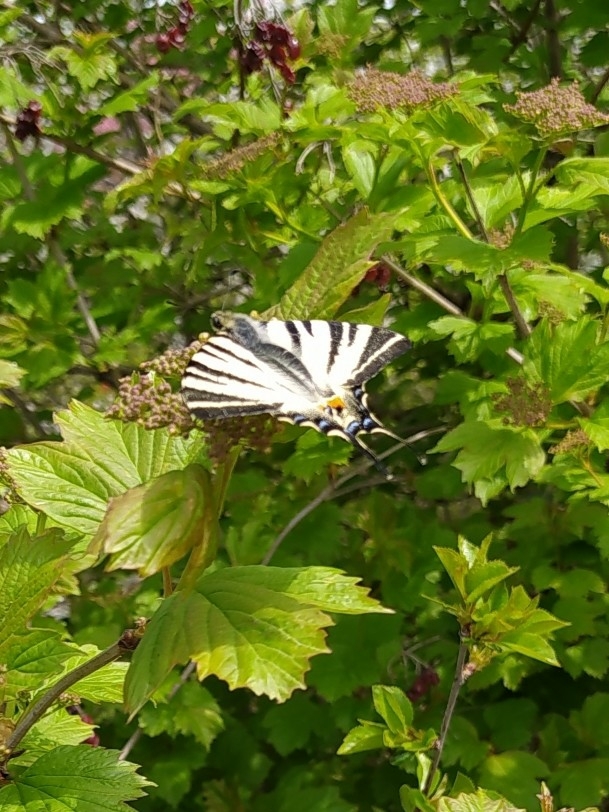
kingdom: Animalia
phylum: Arthropoda
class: Insecta
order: Lepidoptera
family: Papilionidae
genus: Iphiclides
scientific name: Iphiclides podalirius
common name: Scarce swallowtail
